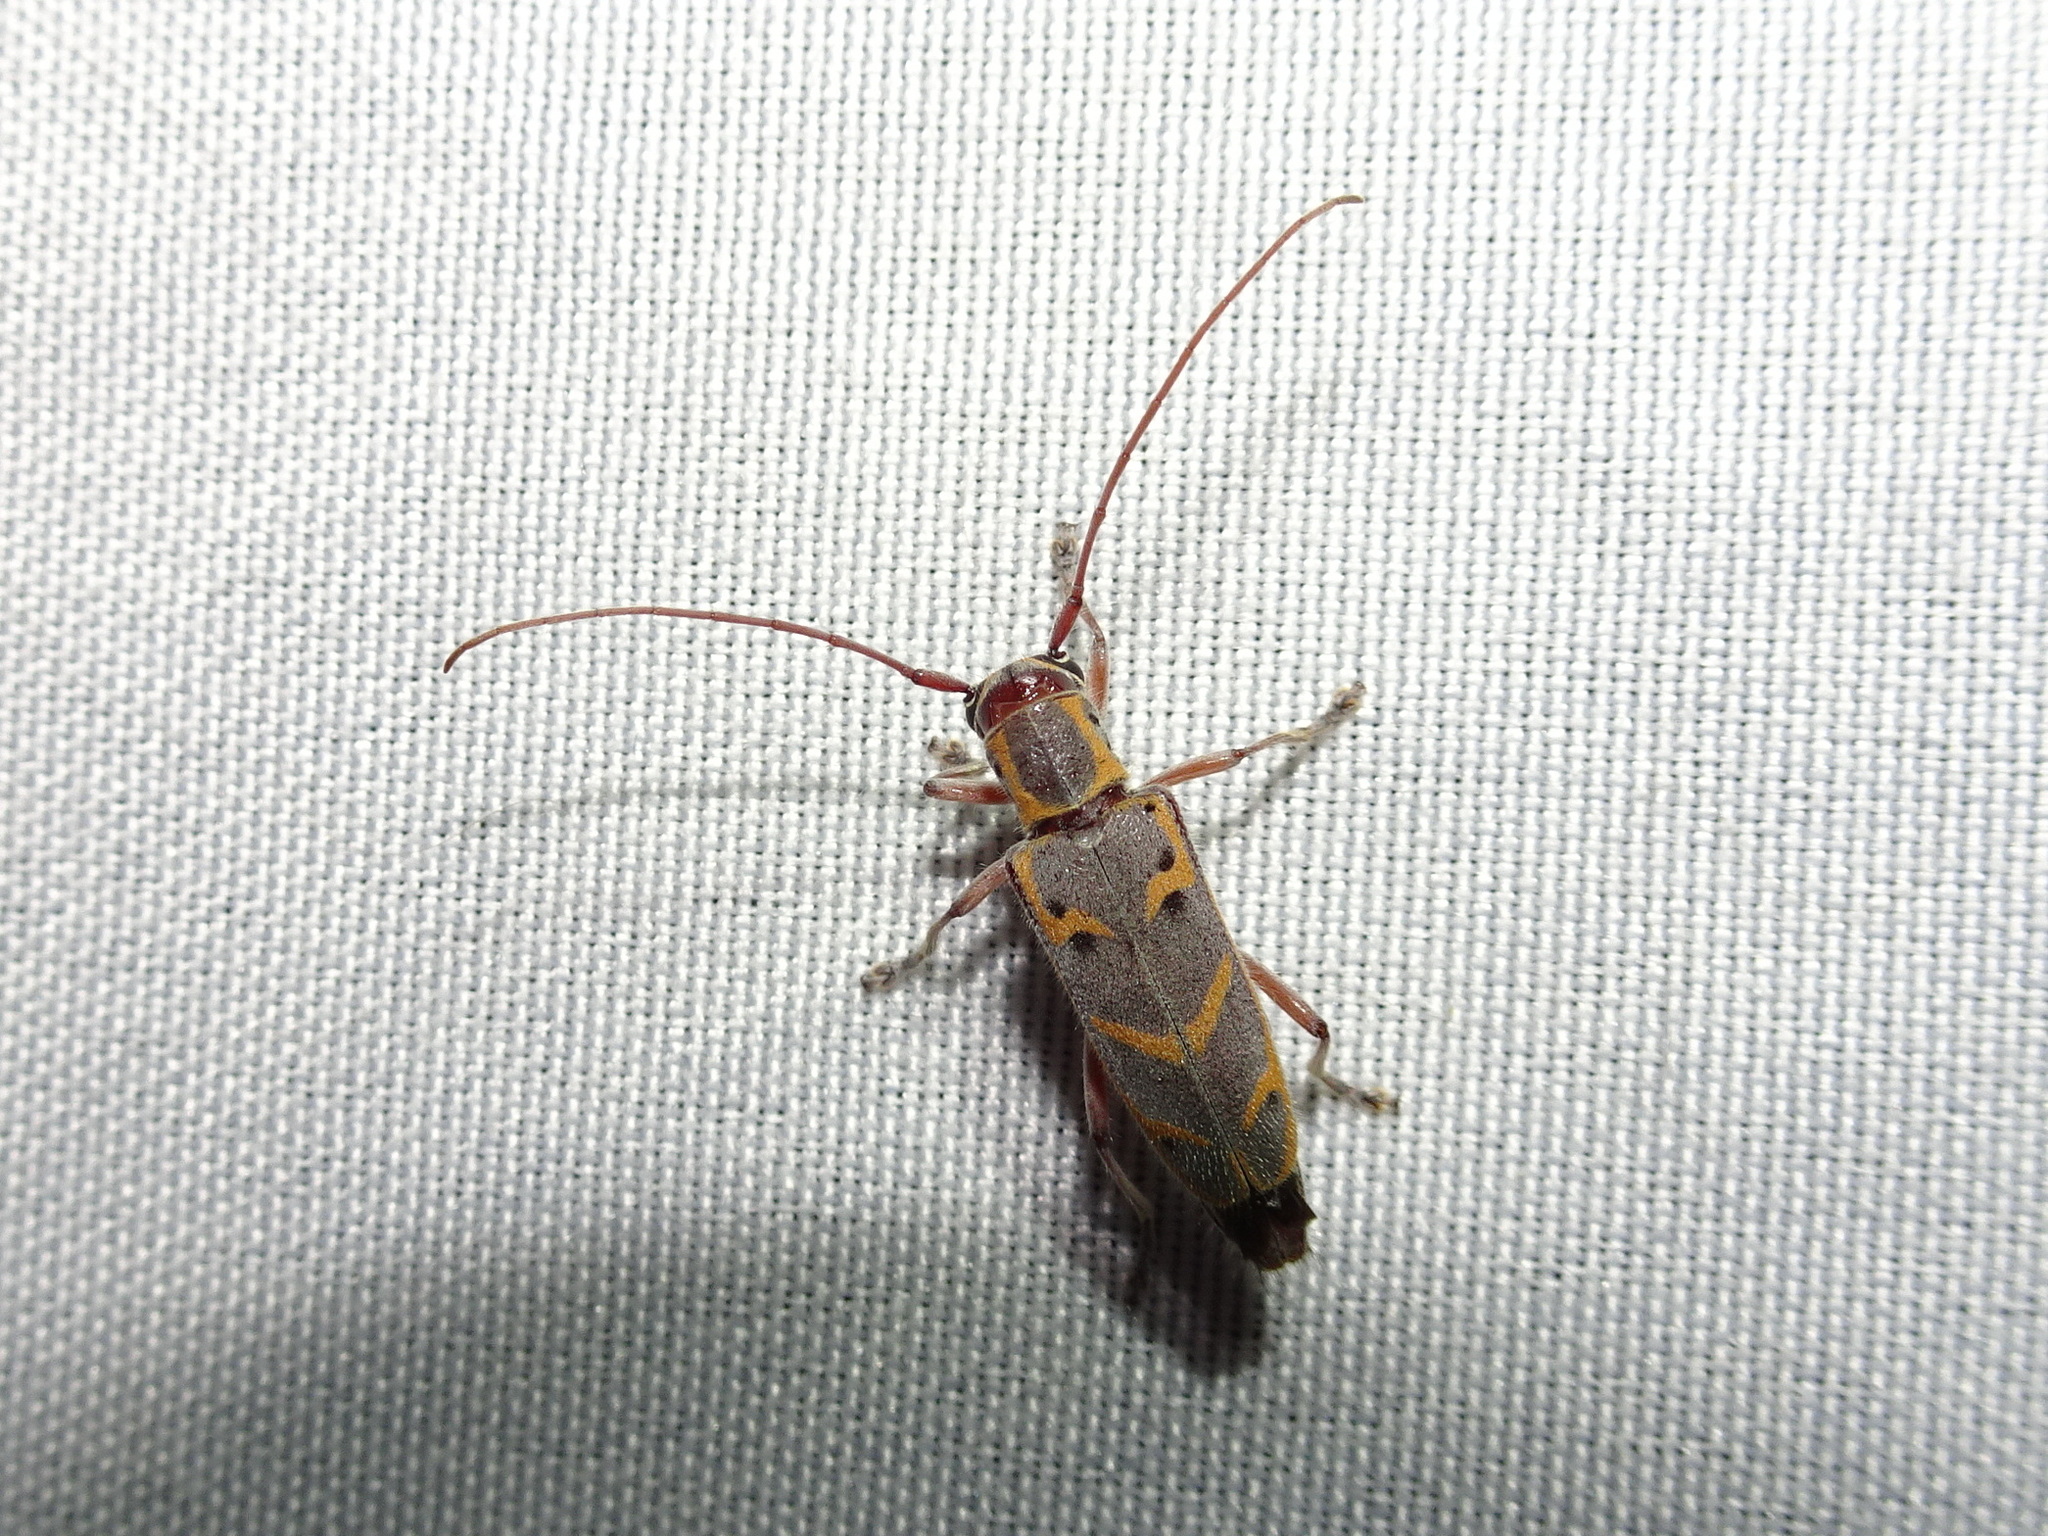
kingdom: Animalia
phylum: Arthropoda
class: Insecta
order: Coleoptera
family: Cerambycidae
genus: Saperda
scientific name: Saperda tridentata
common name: Elm borer
